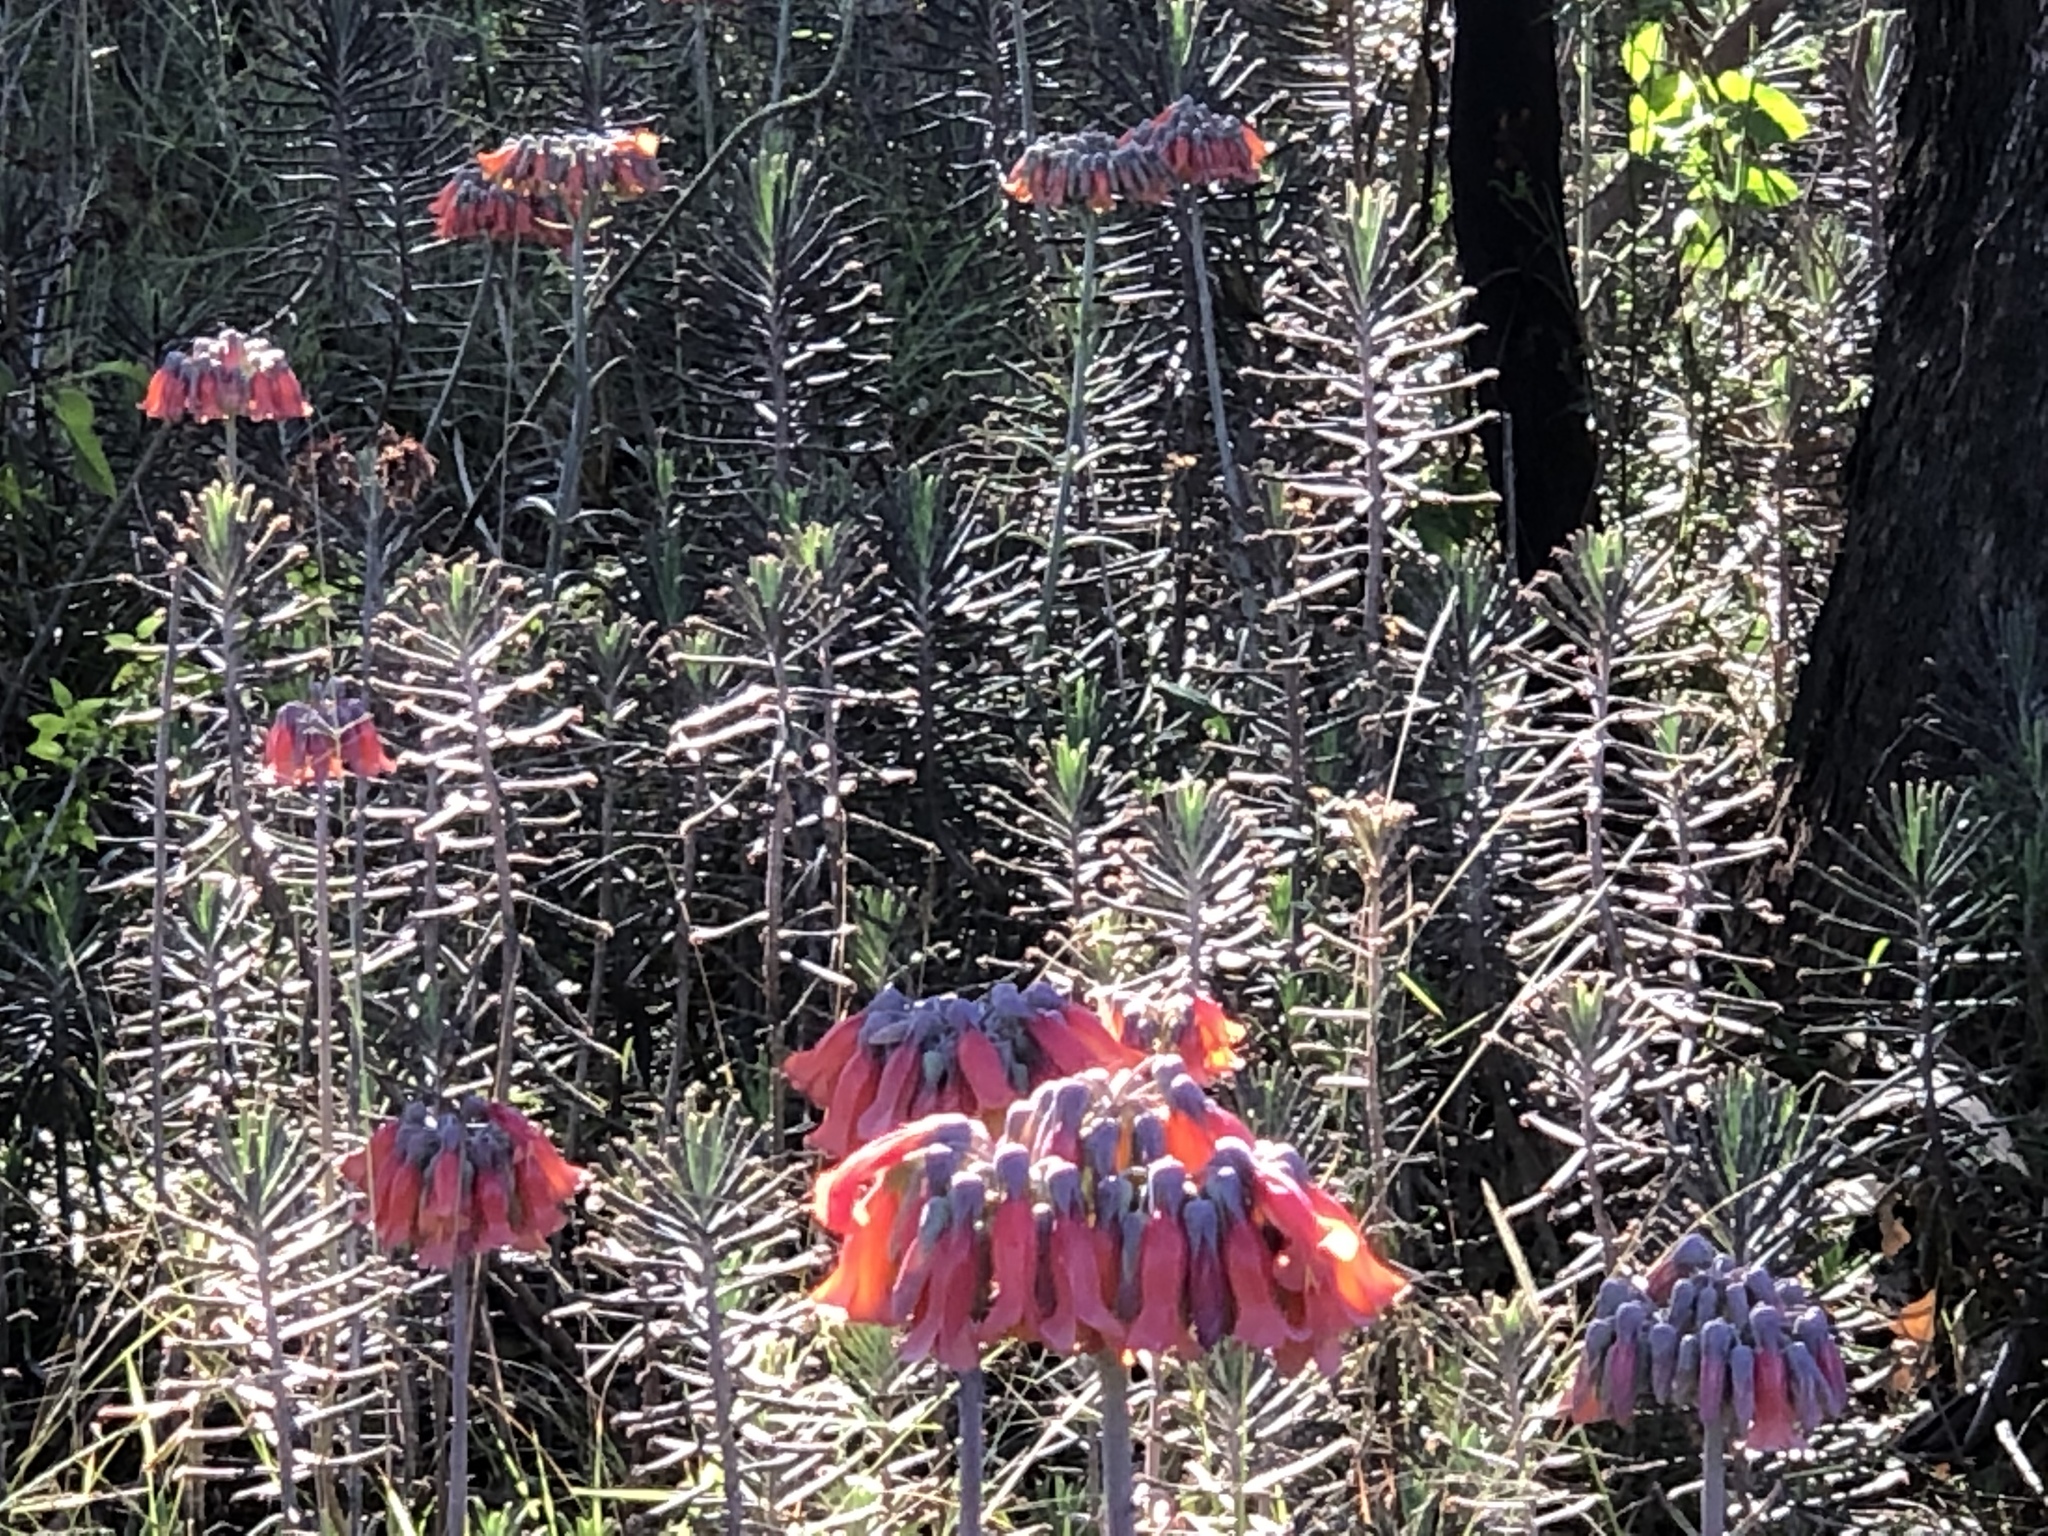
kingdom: Plantae
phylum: Tracheophyta
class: Magnoliopsida
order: Saxifragales
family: Crassulaceae
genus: Kalanchoe
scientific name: Kalanchoe delagoensis
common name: Chandelier plant
